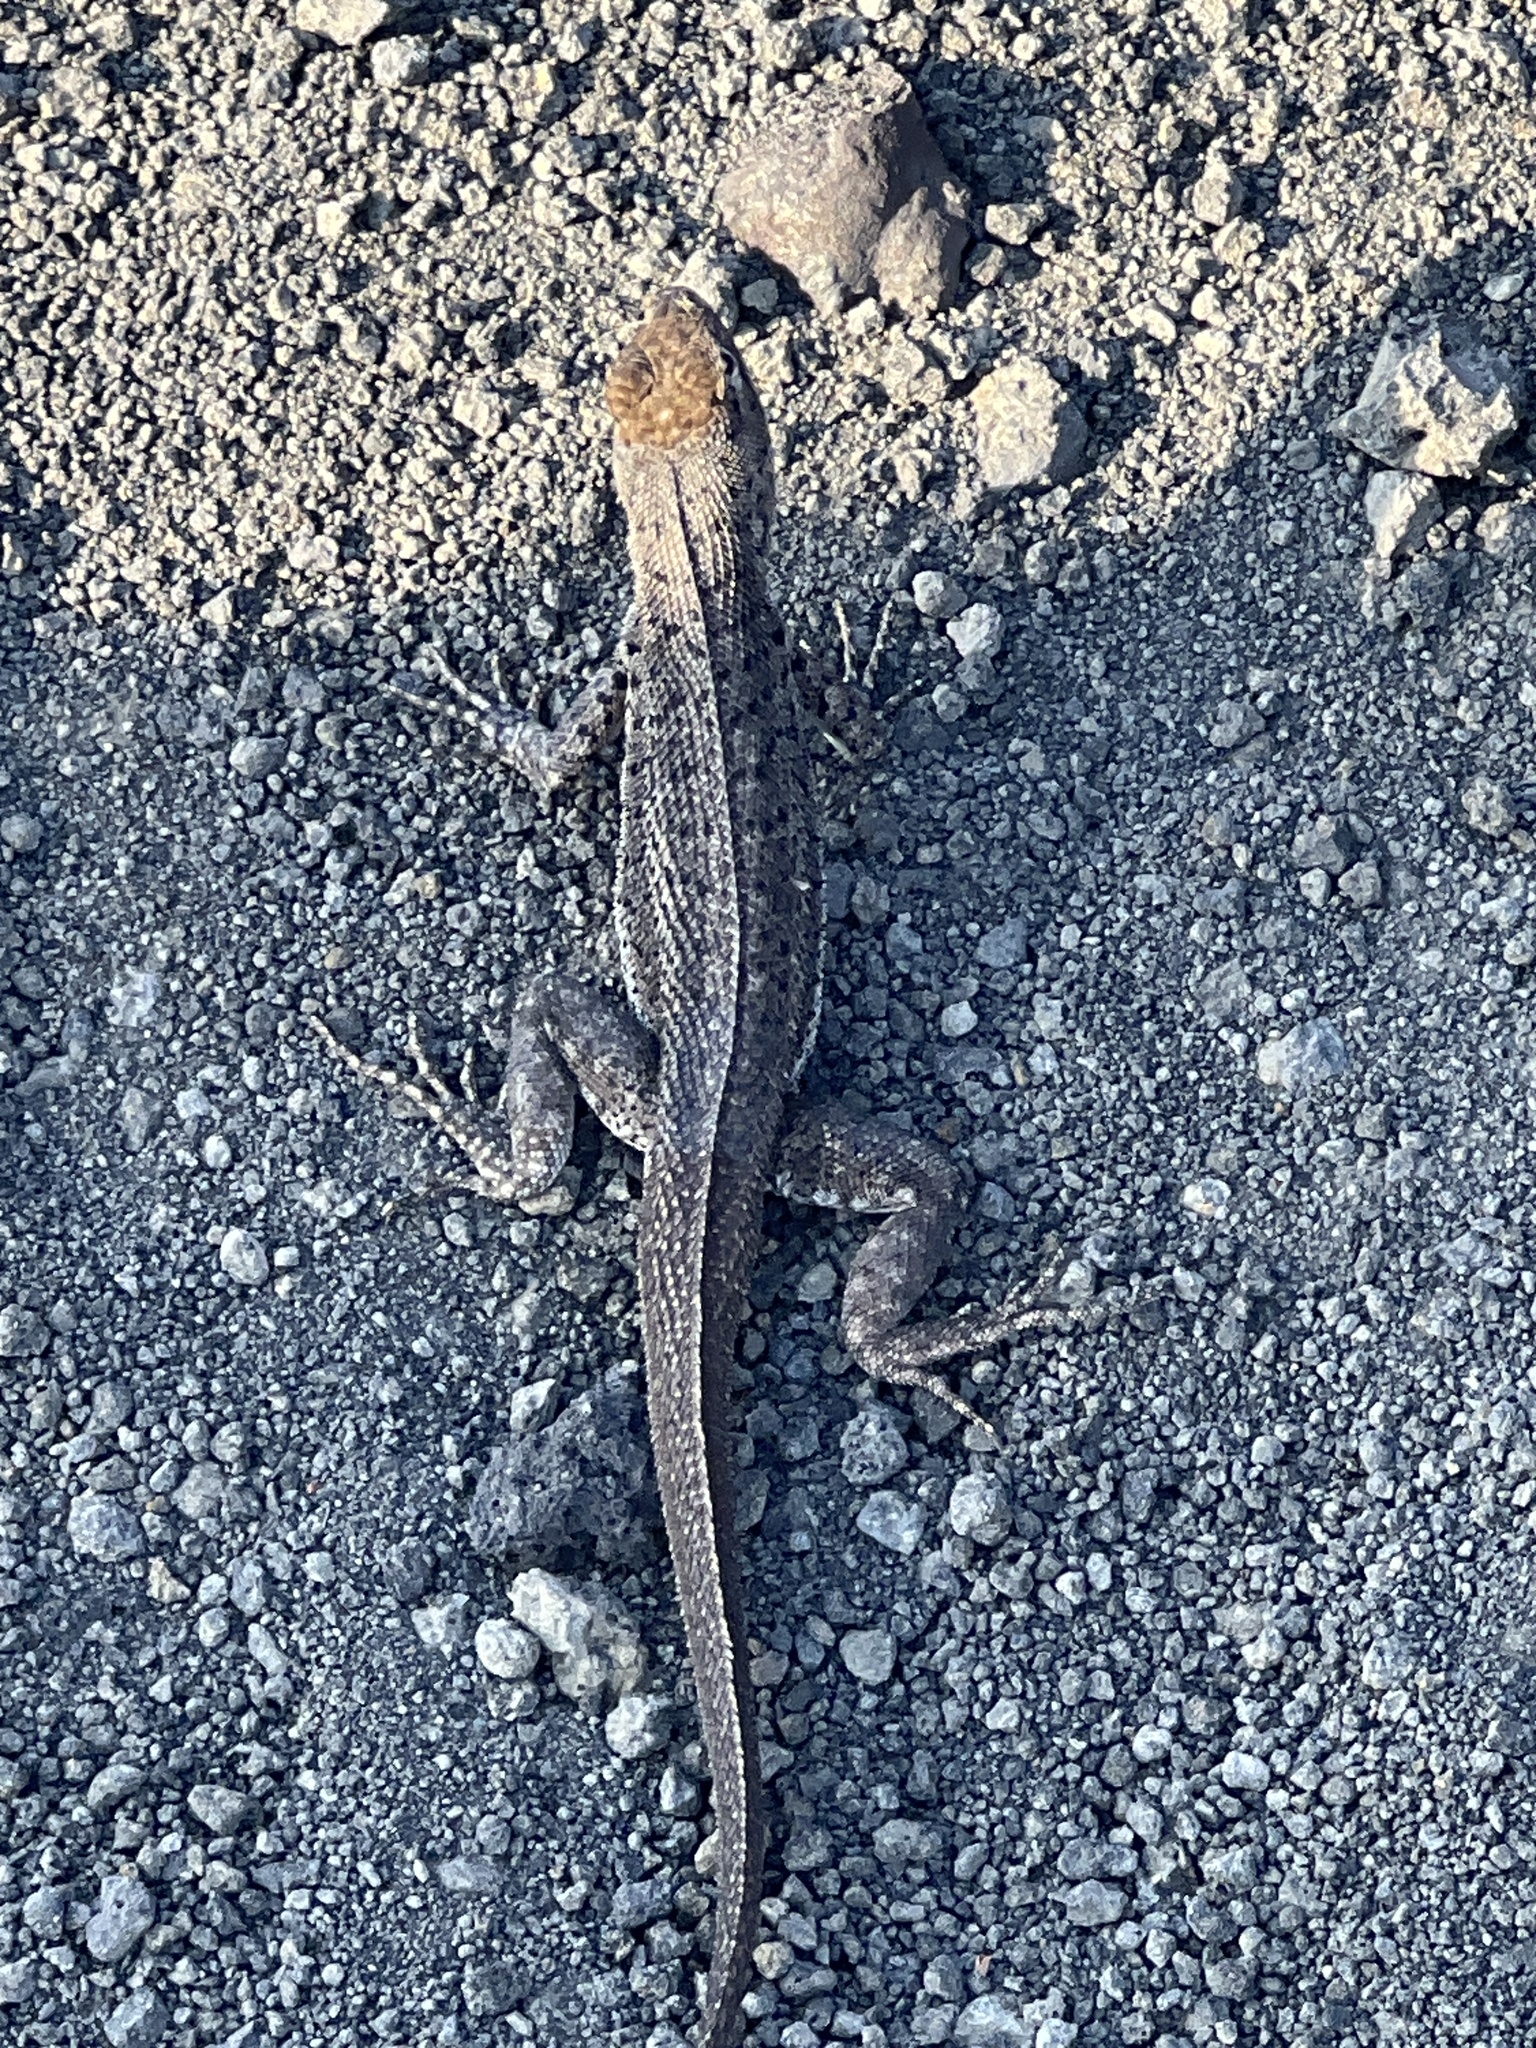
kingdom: Animalia
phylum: Chordata
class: Squamata
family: Tropiduridae
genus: Microlophus
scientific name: Microlophus jacobii
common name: Santiago lava lizard
